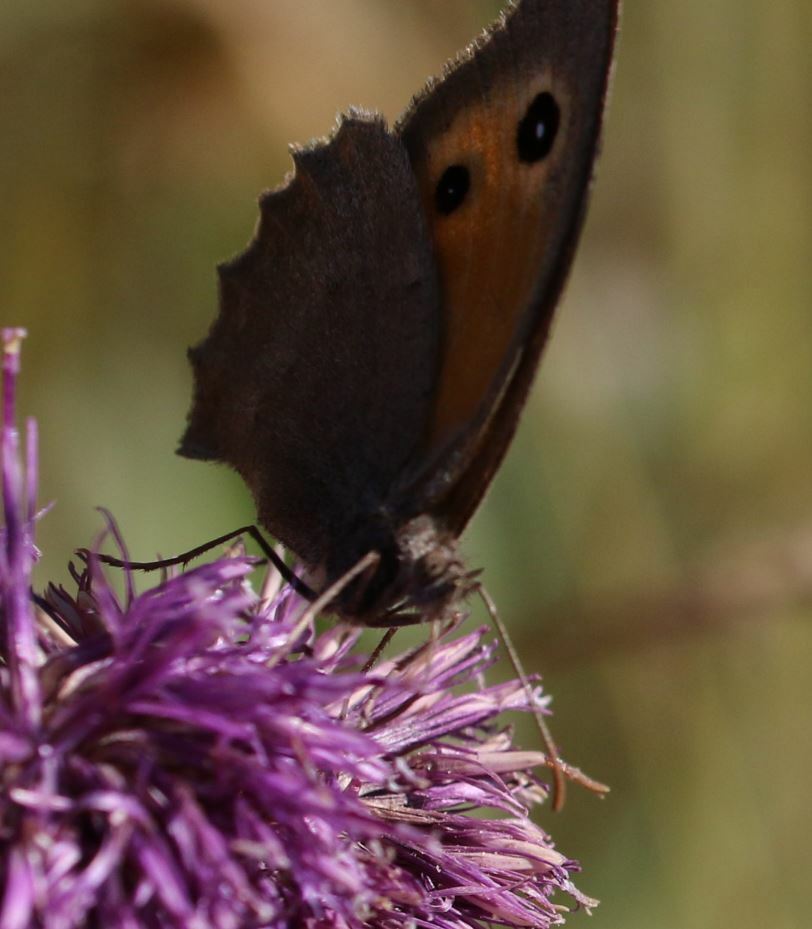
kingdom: Animalia
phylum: Arthropoda
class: Insecta
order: Lepidoptera
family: Nymphalidae
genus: Hyponephele
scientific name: Hyponephele lycaon
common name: Dusky meadow brown
